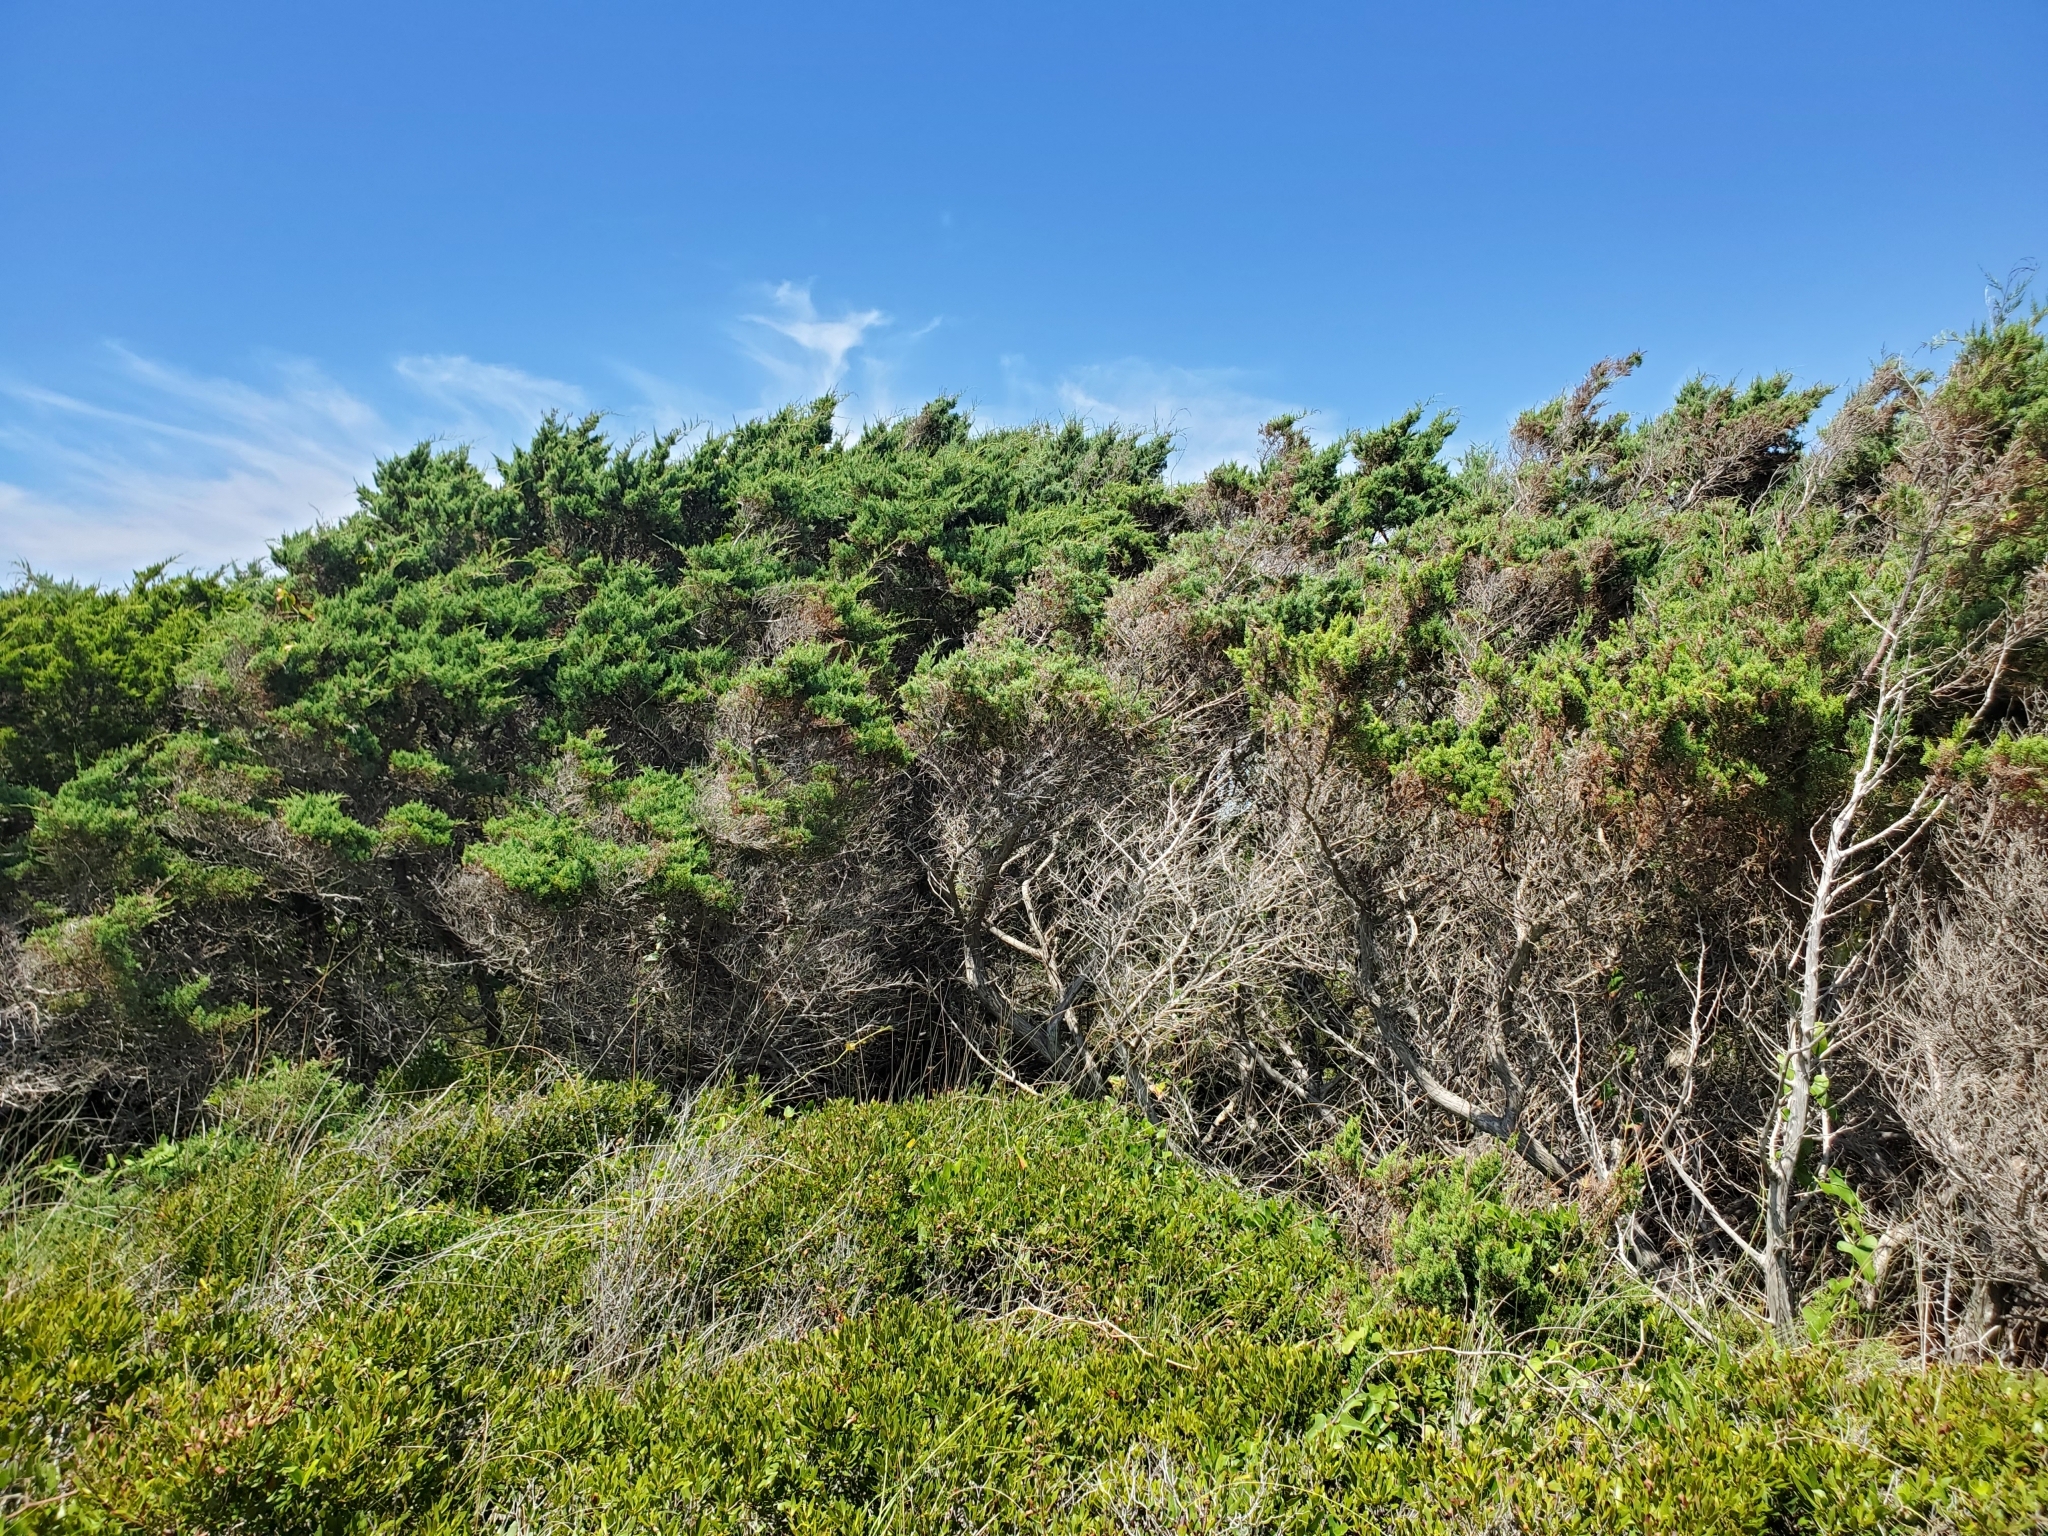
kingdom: Animalia
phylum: Arthropoda
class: Insecta
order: Hemiptera
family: Cicadidae
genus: Neotibicen
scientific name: Neotibicen latifasciatus
